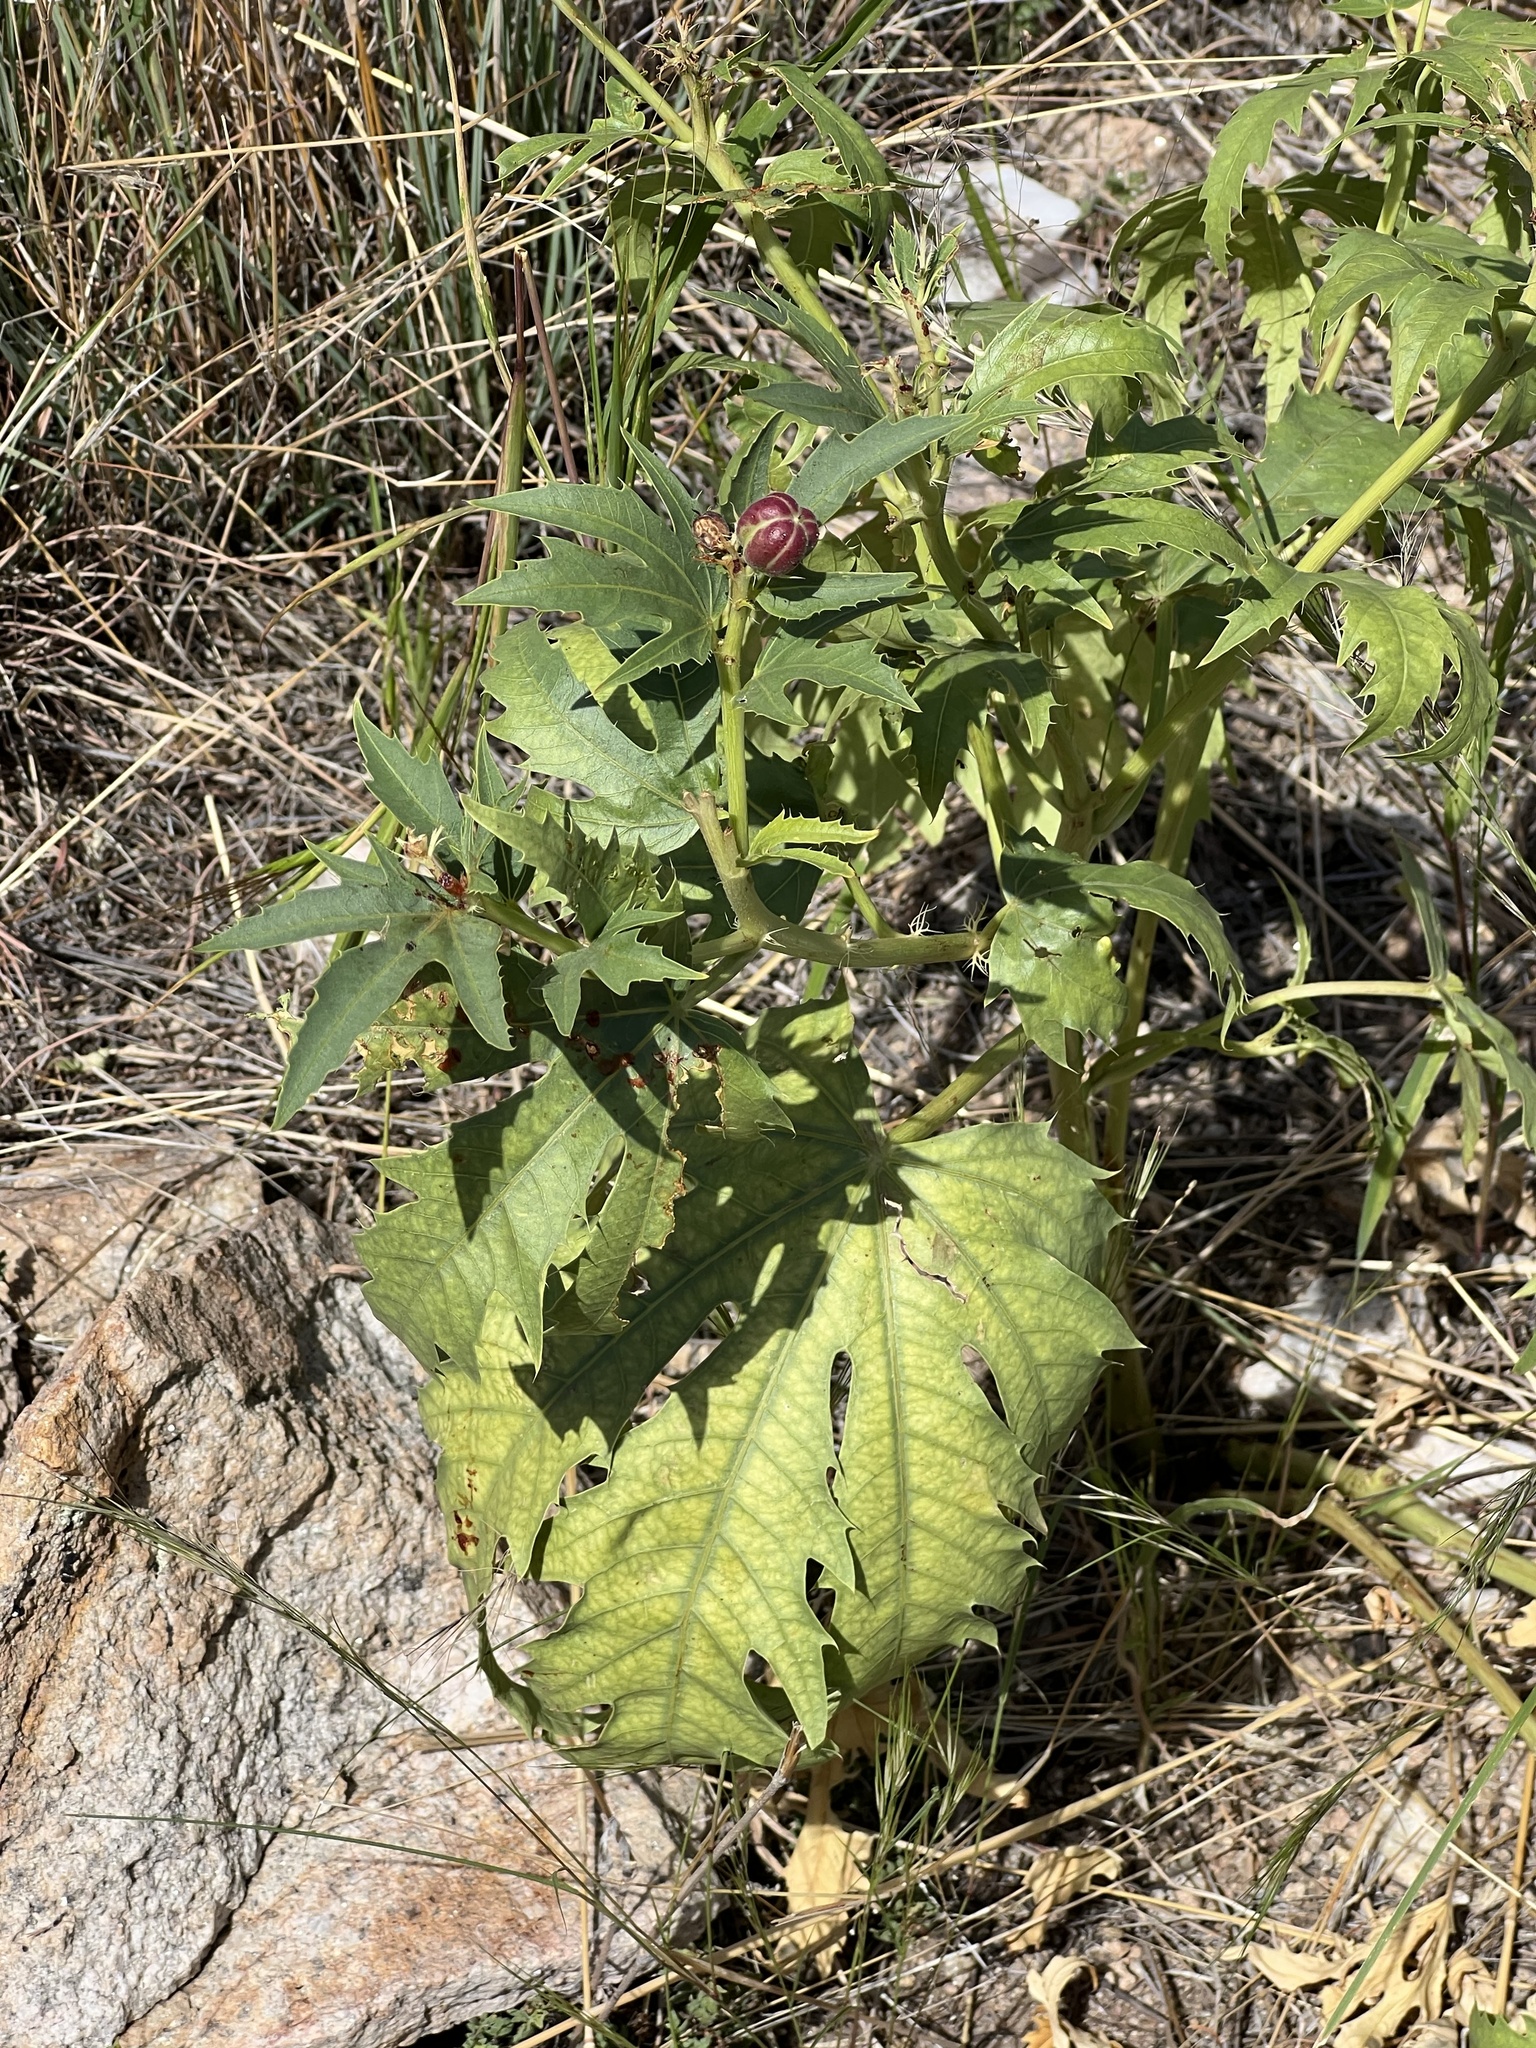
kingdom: Plantae
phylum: Tracheophyta
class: Magnoliopsida
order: Malpighiales
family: Euphorbiaceae
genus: Jatropha
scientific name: Jatropha macrorhiza
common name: Ragged nettlespurge
